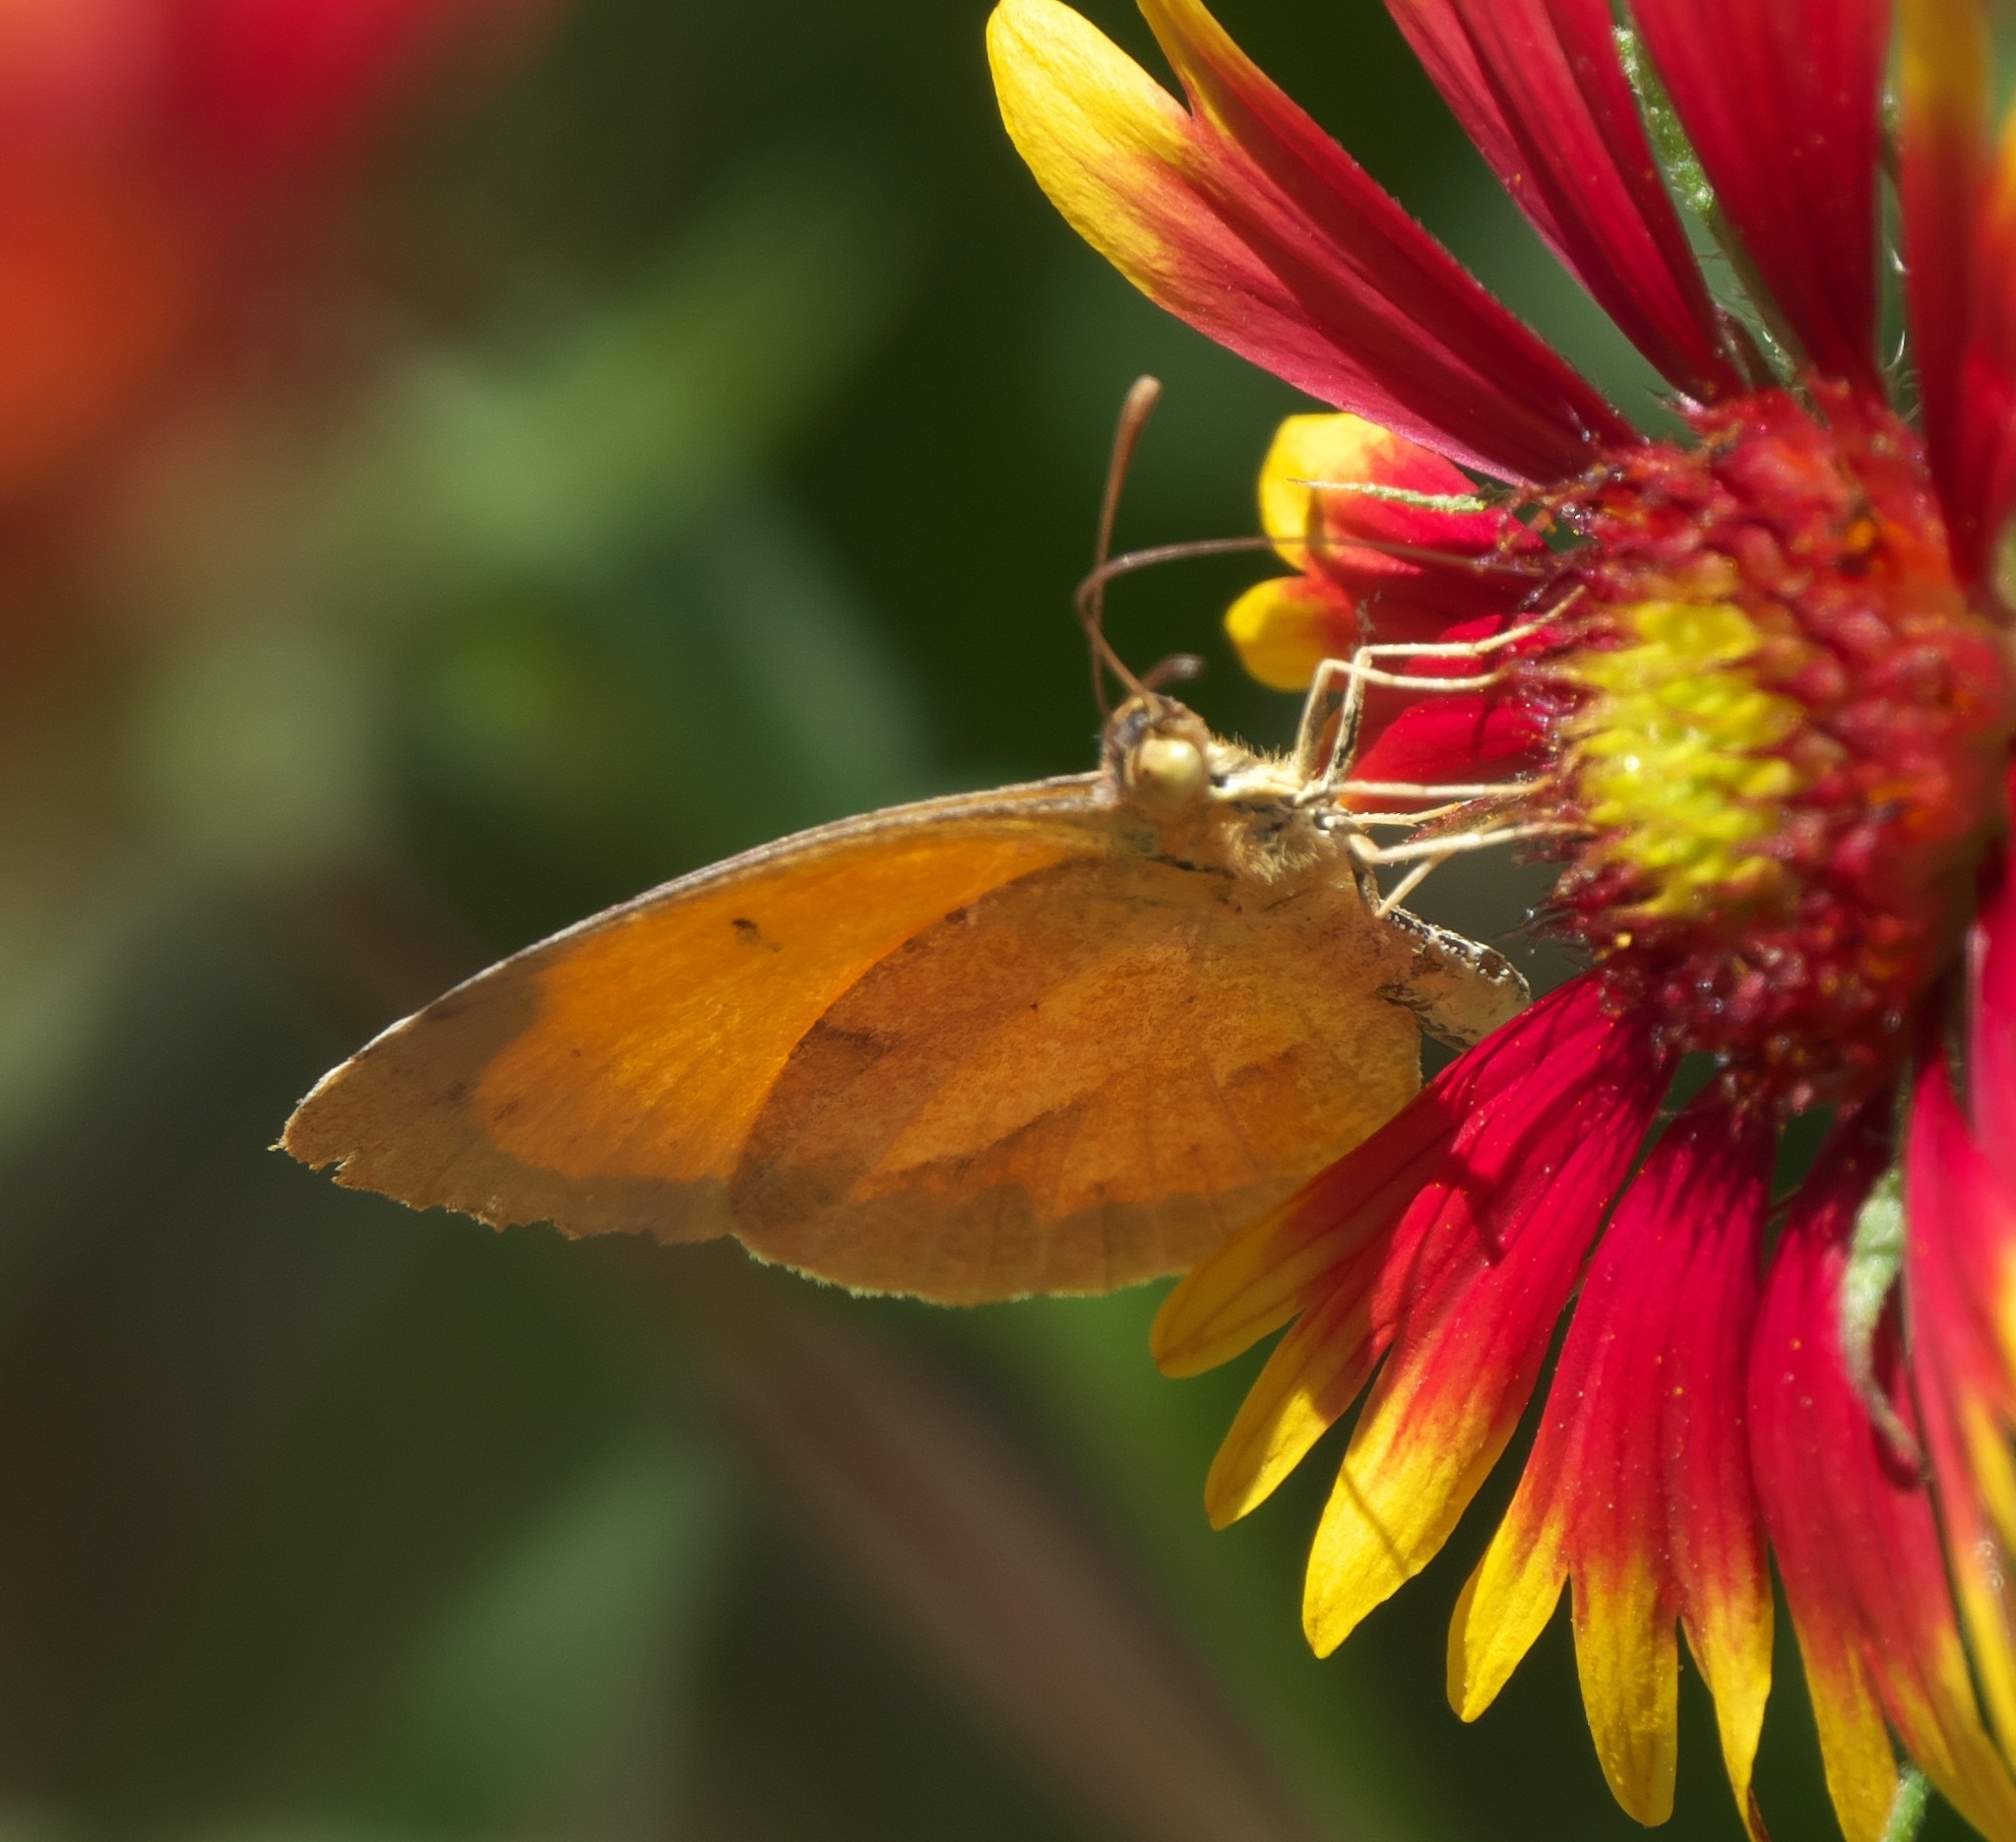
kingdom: Animalia
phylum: Arthropoda
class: Insecta
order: Lepidoptera
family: Pieridae
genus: Abaeis
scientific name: Abaeis nicippe
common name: Sleepy orange
